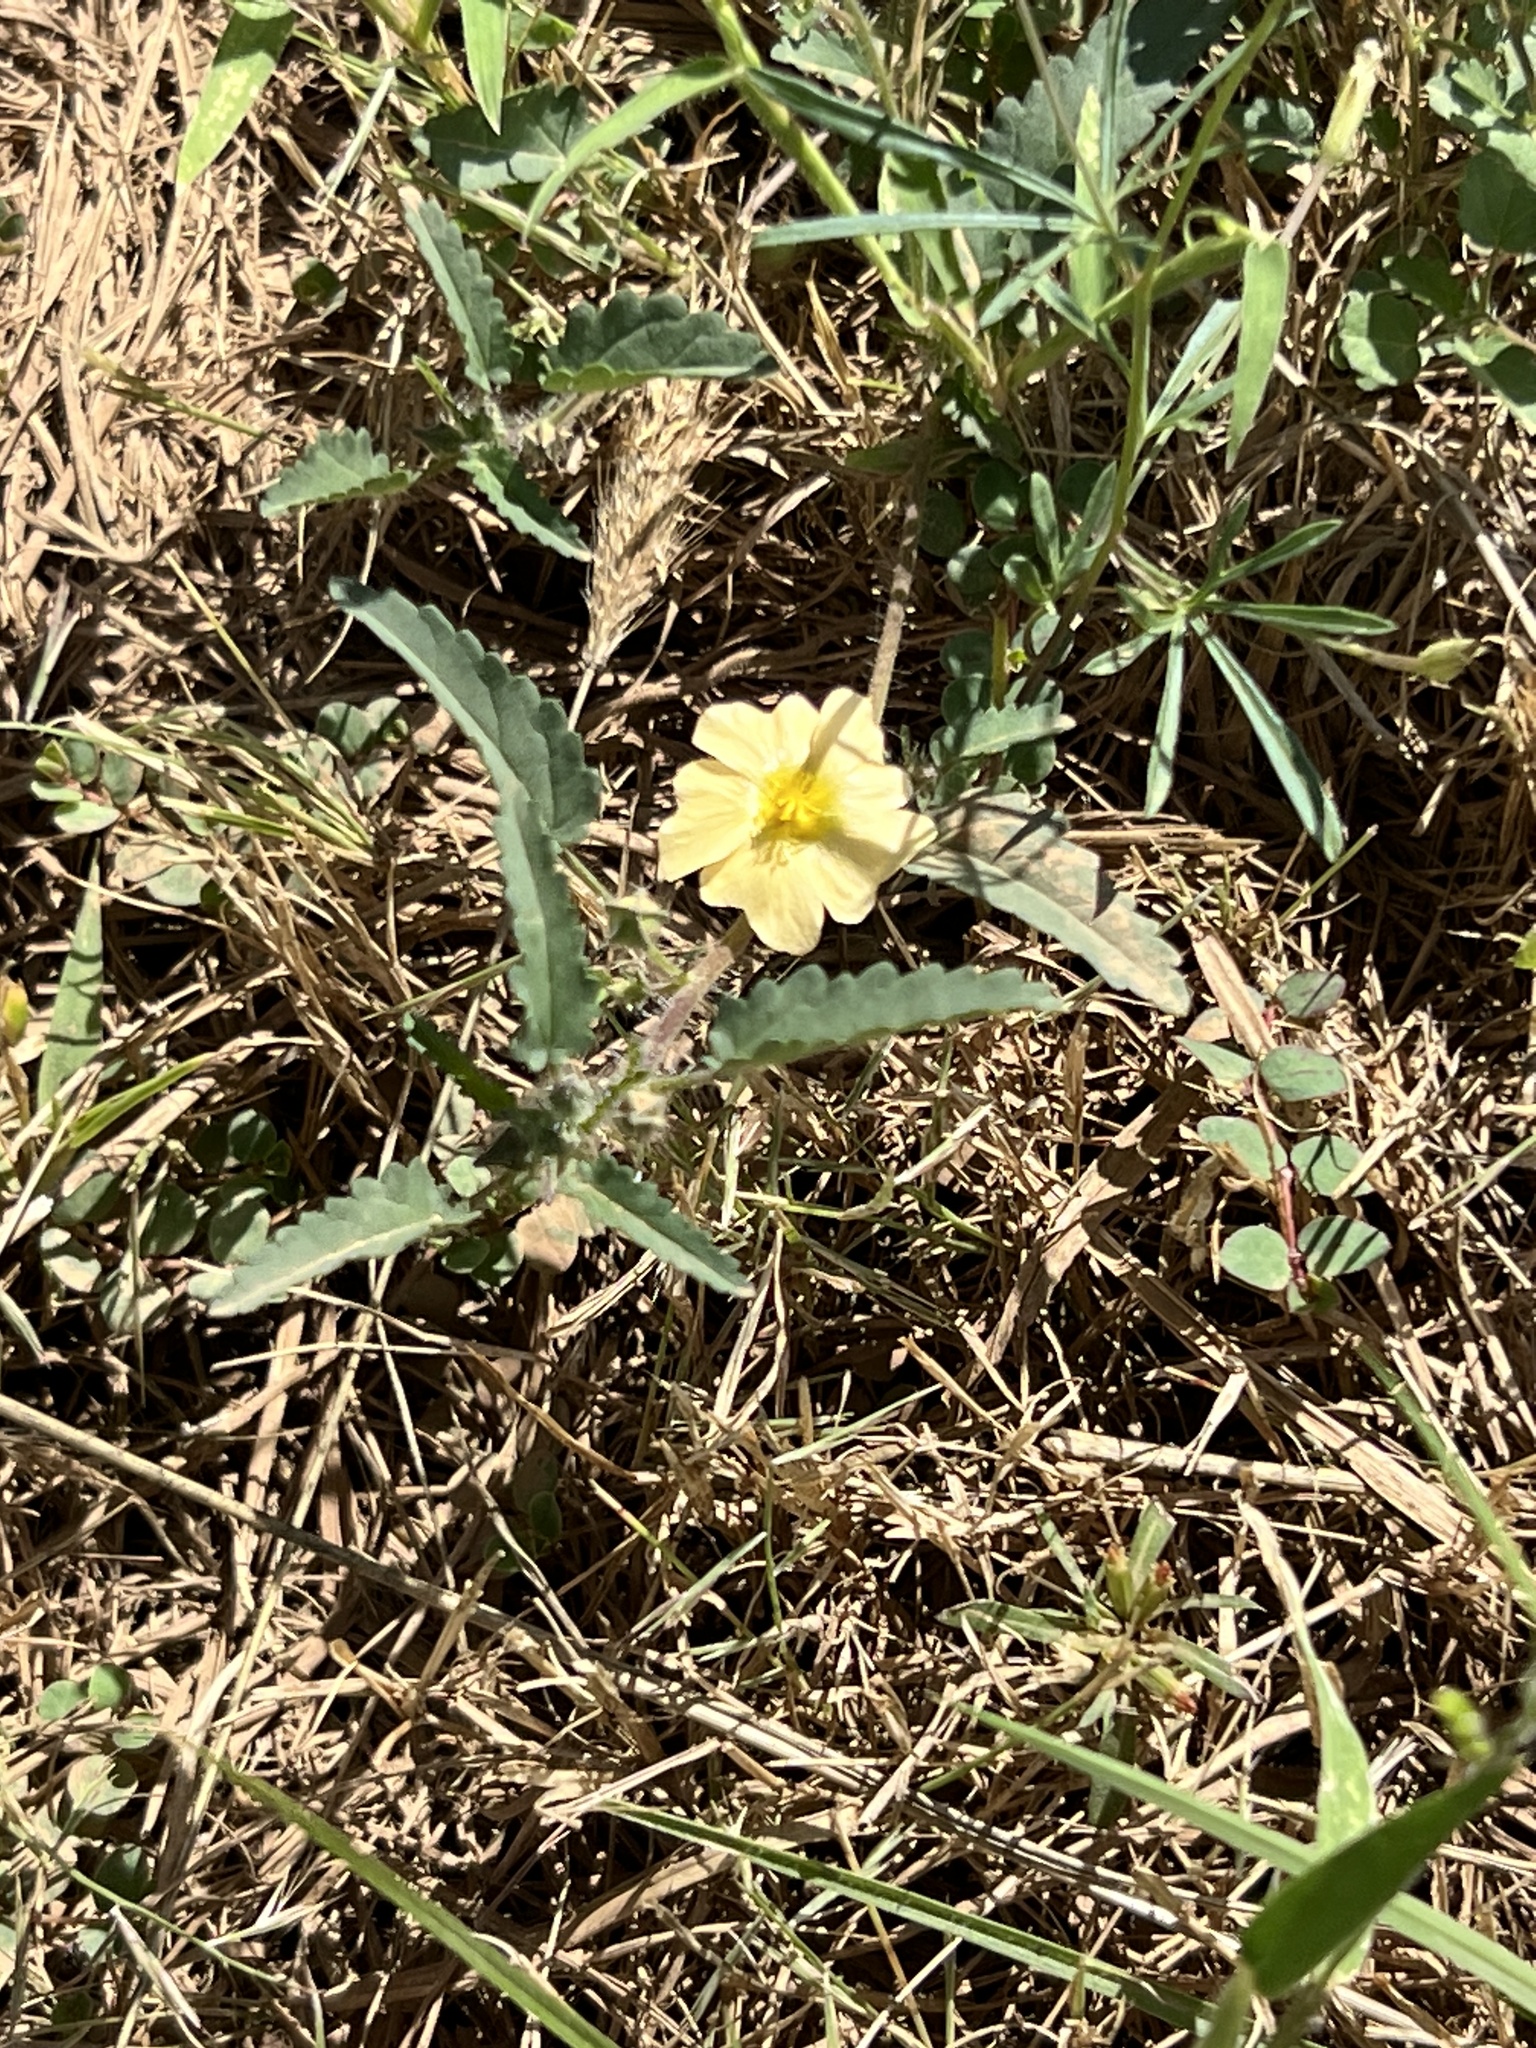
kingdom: Plantae
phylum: Tracheophyta
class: Magnoliopsida
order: Malvales
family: Malvaceae
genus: Sida
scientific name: Sida abutilifolia
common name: Spreading fanpetals
